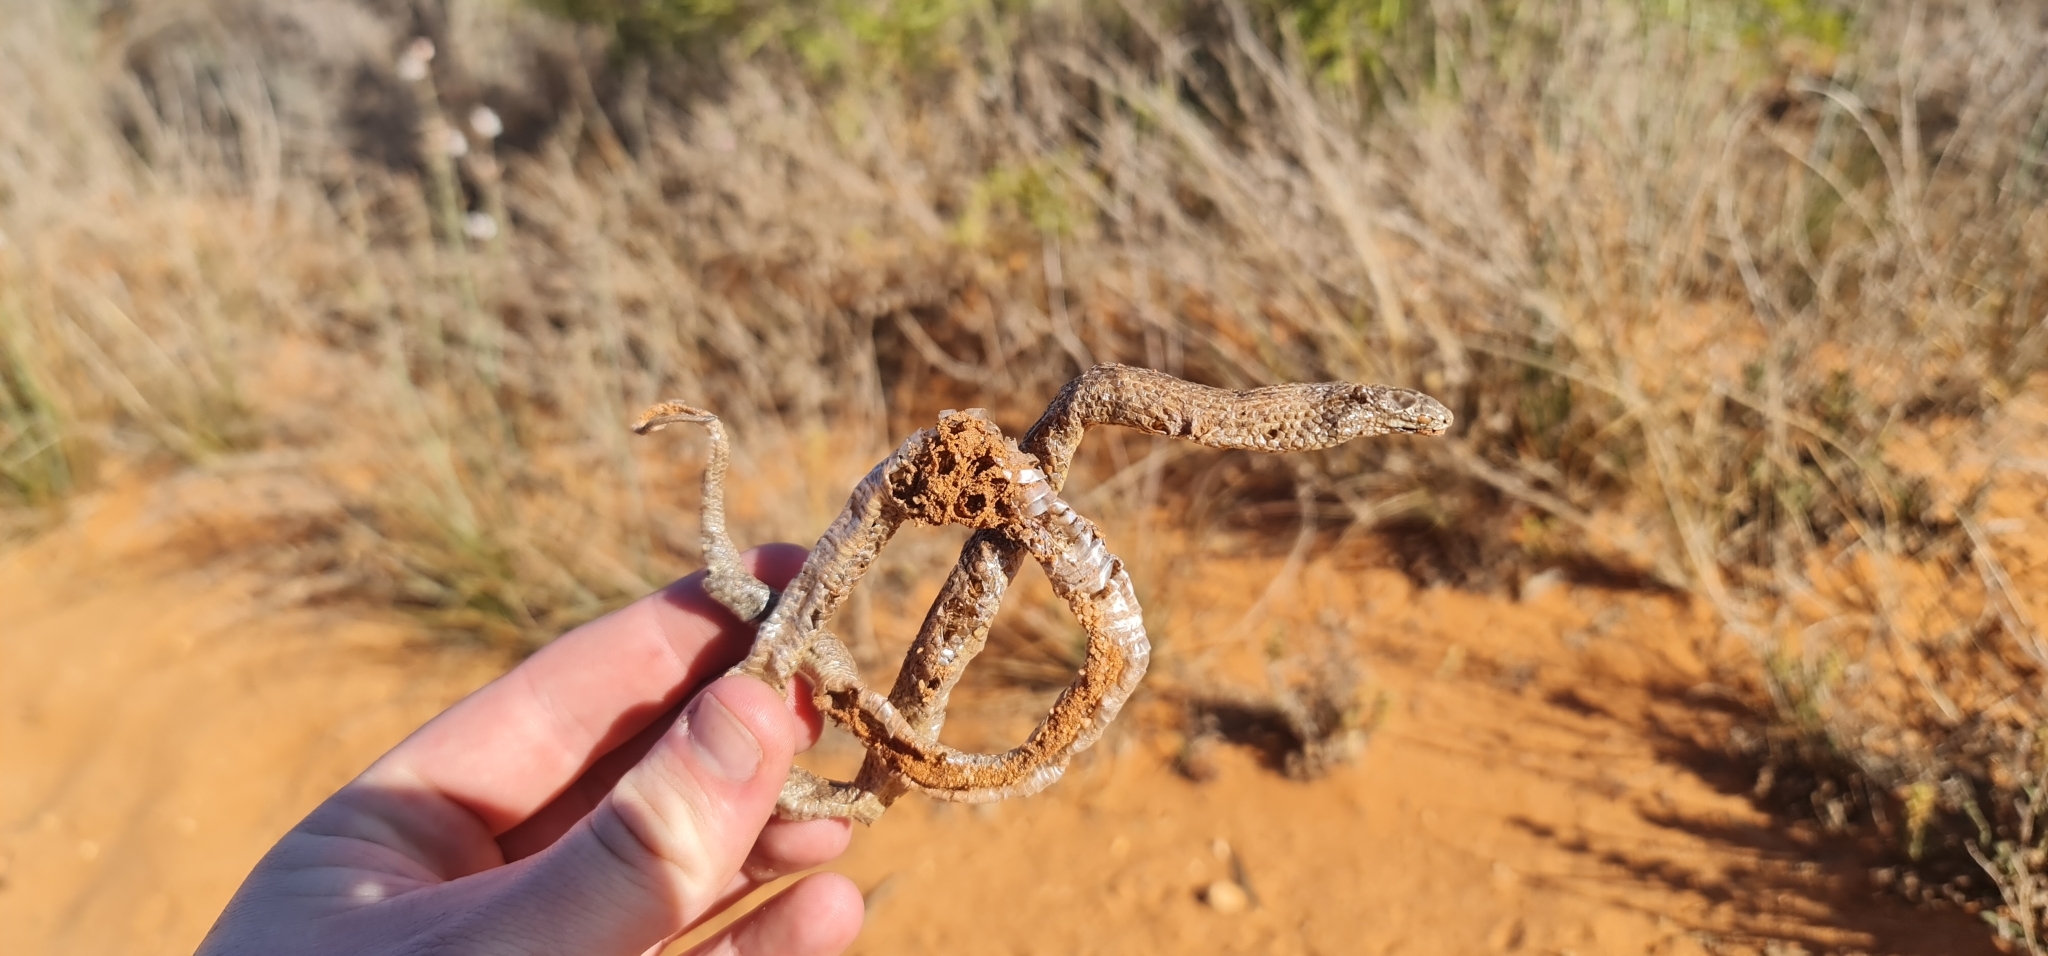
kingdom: Animalia
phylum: Chordata
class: Squamata
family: Elapidae
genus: Pseudonaja
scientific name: Pseudonaja aspidorhyncha
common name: Strap-snouted brown snake
